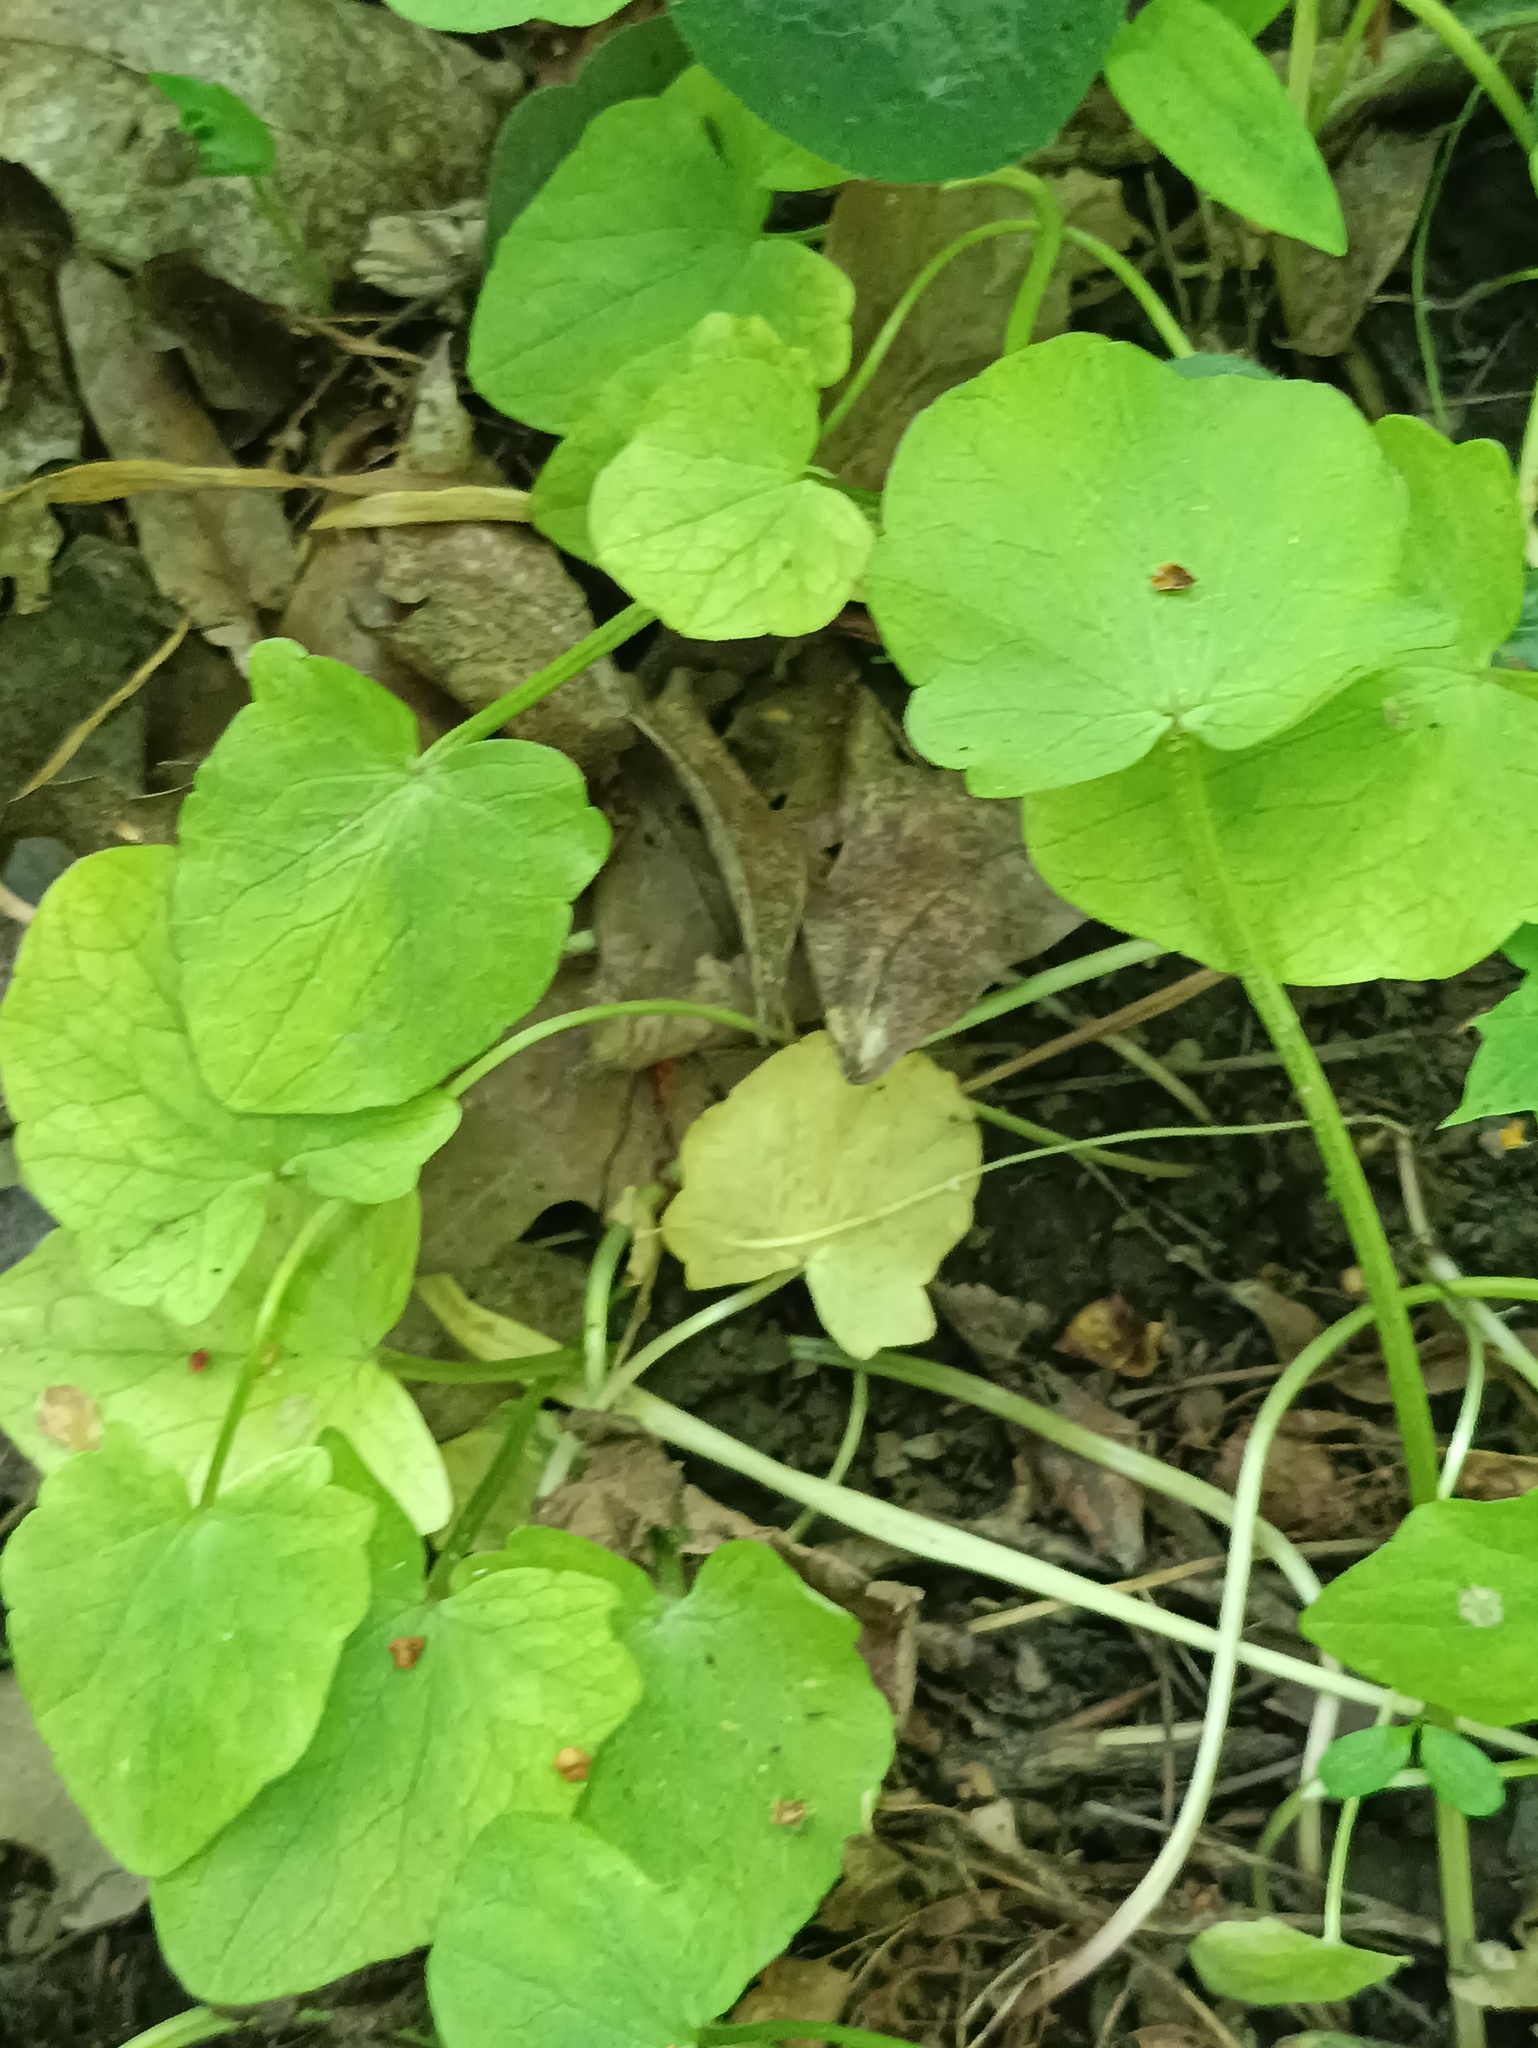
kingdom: Plantae
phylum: Tracheophyta
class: Magnoliopsida
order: Ranunculales
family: Ranunculaceae
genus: Ficaria
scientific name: Ficaria verna
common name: Lesser celandine
